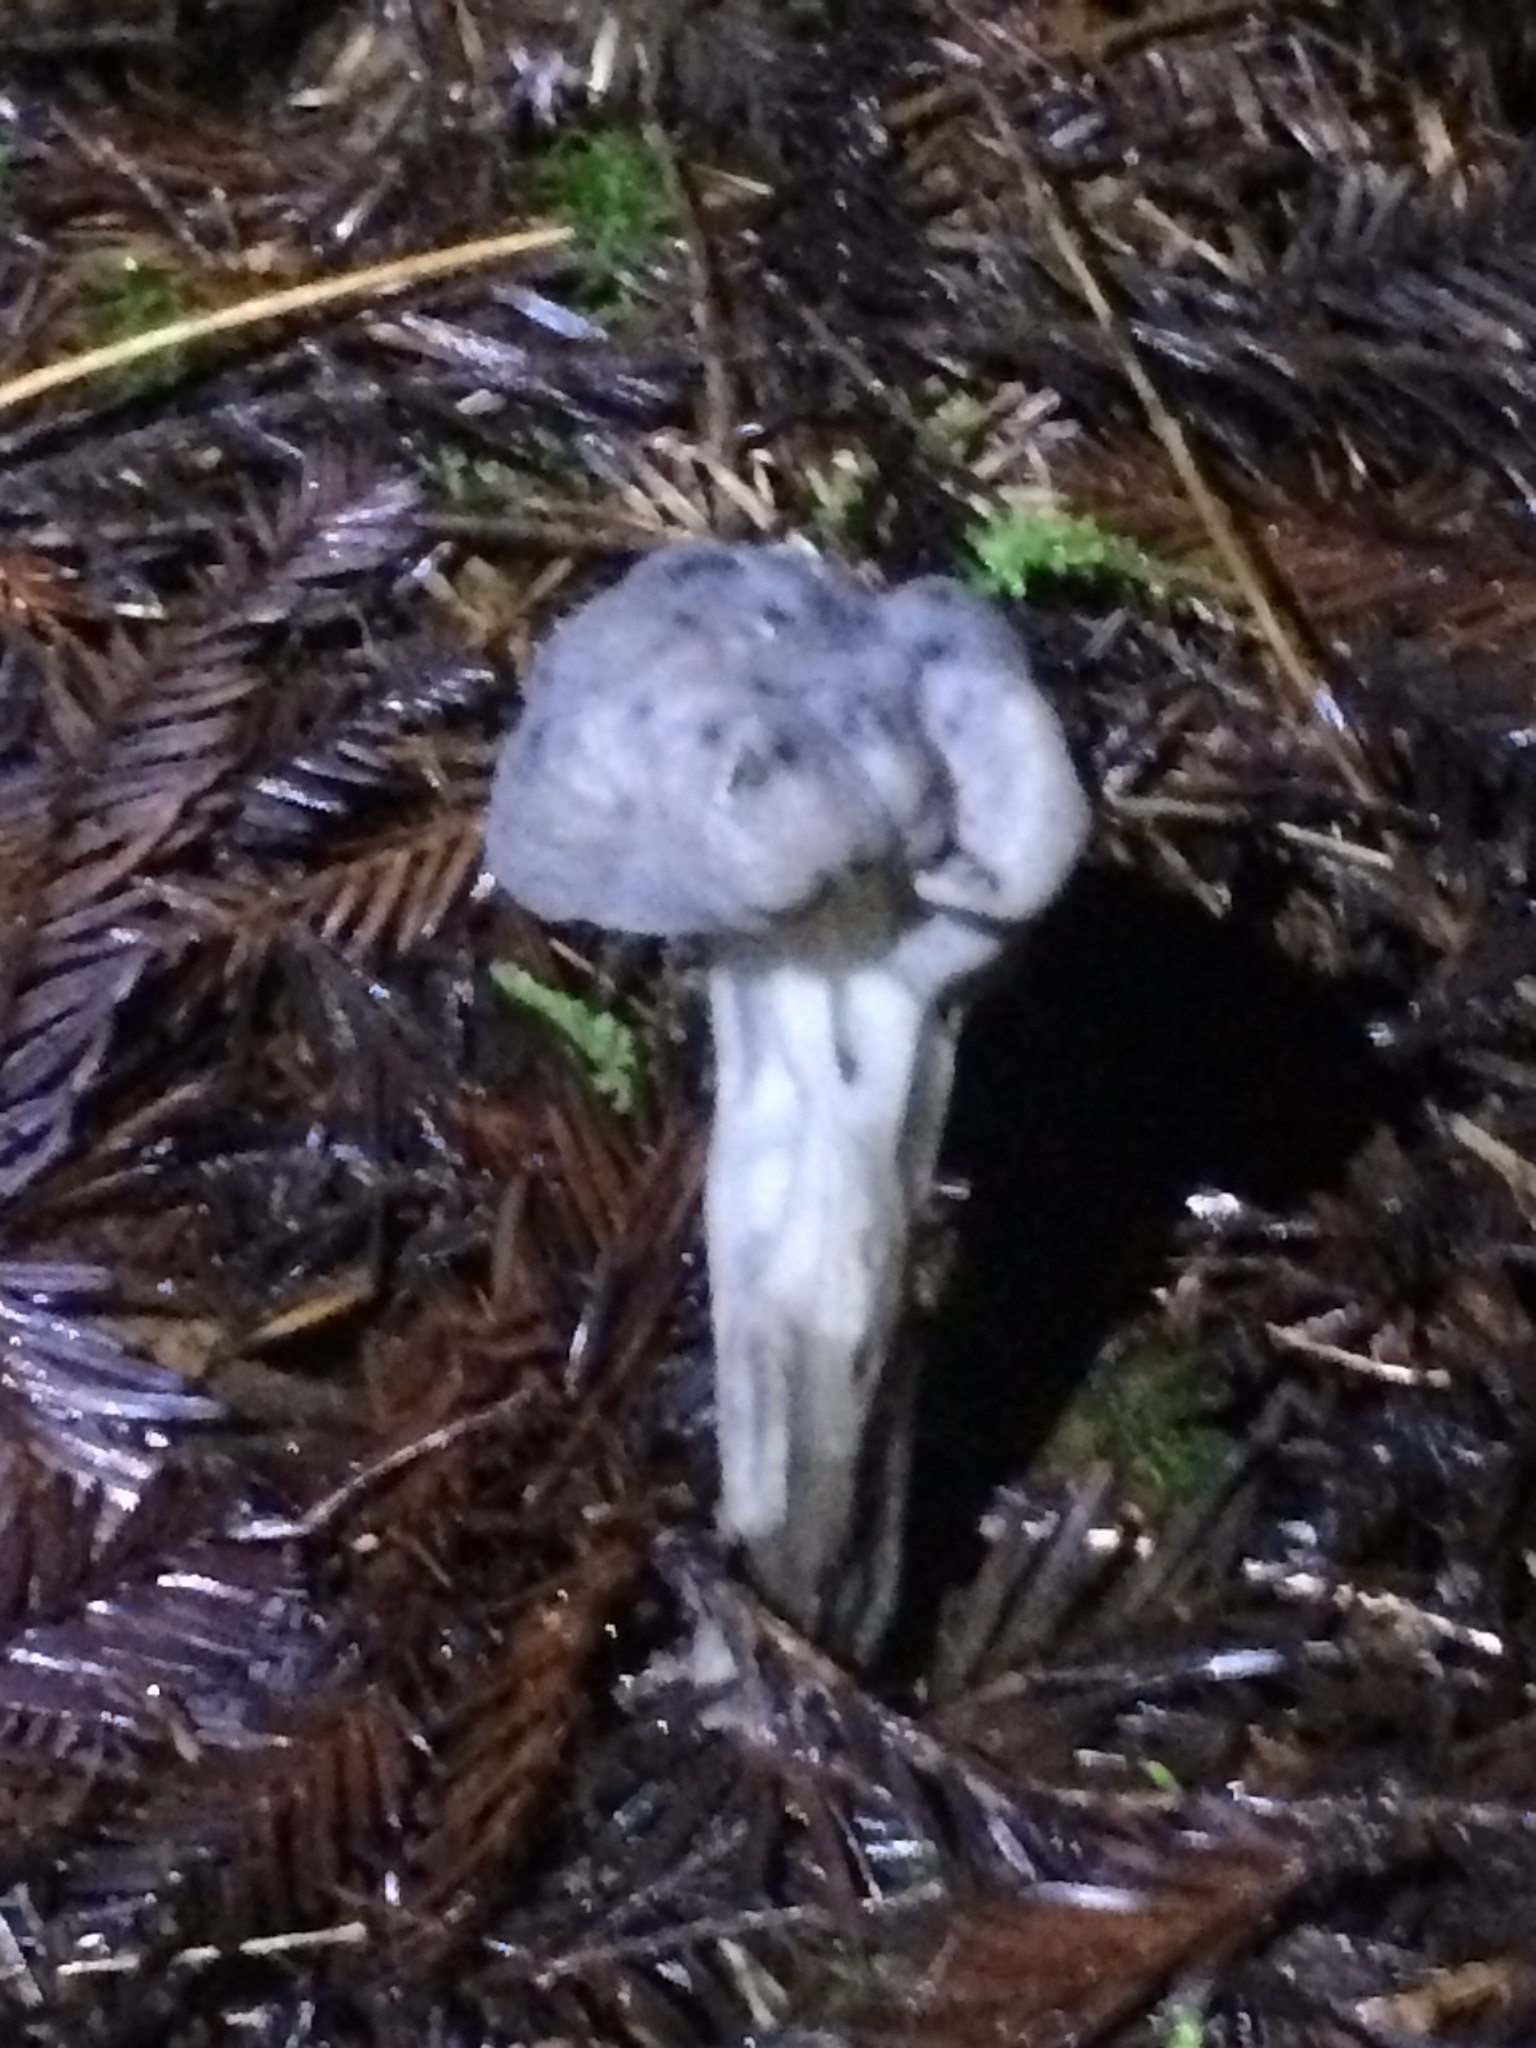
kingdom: Fungi
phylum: Ascomycota
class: Pezizomycetes
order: Pezizales
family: Helvellaceae
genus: Helvella
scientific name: Helvella vespertina
